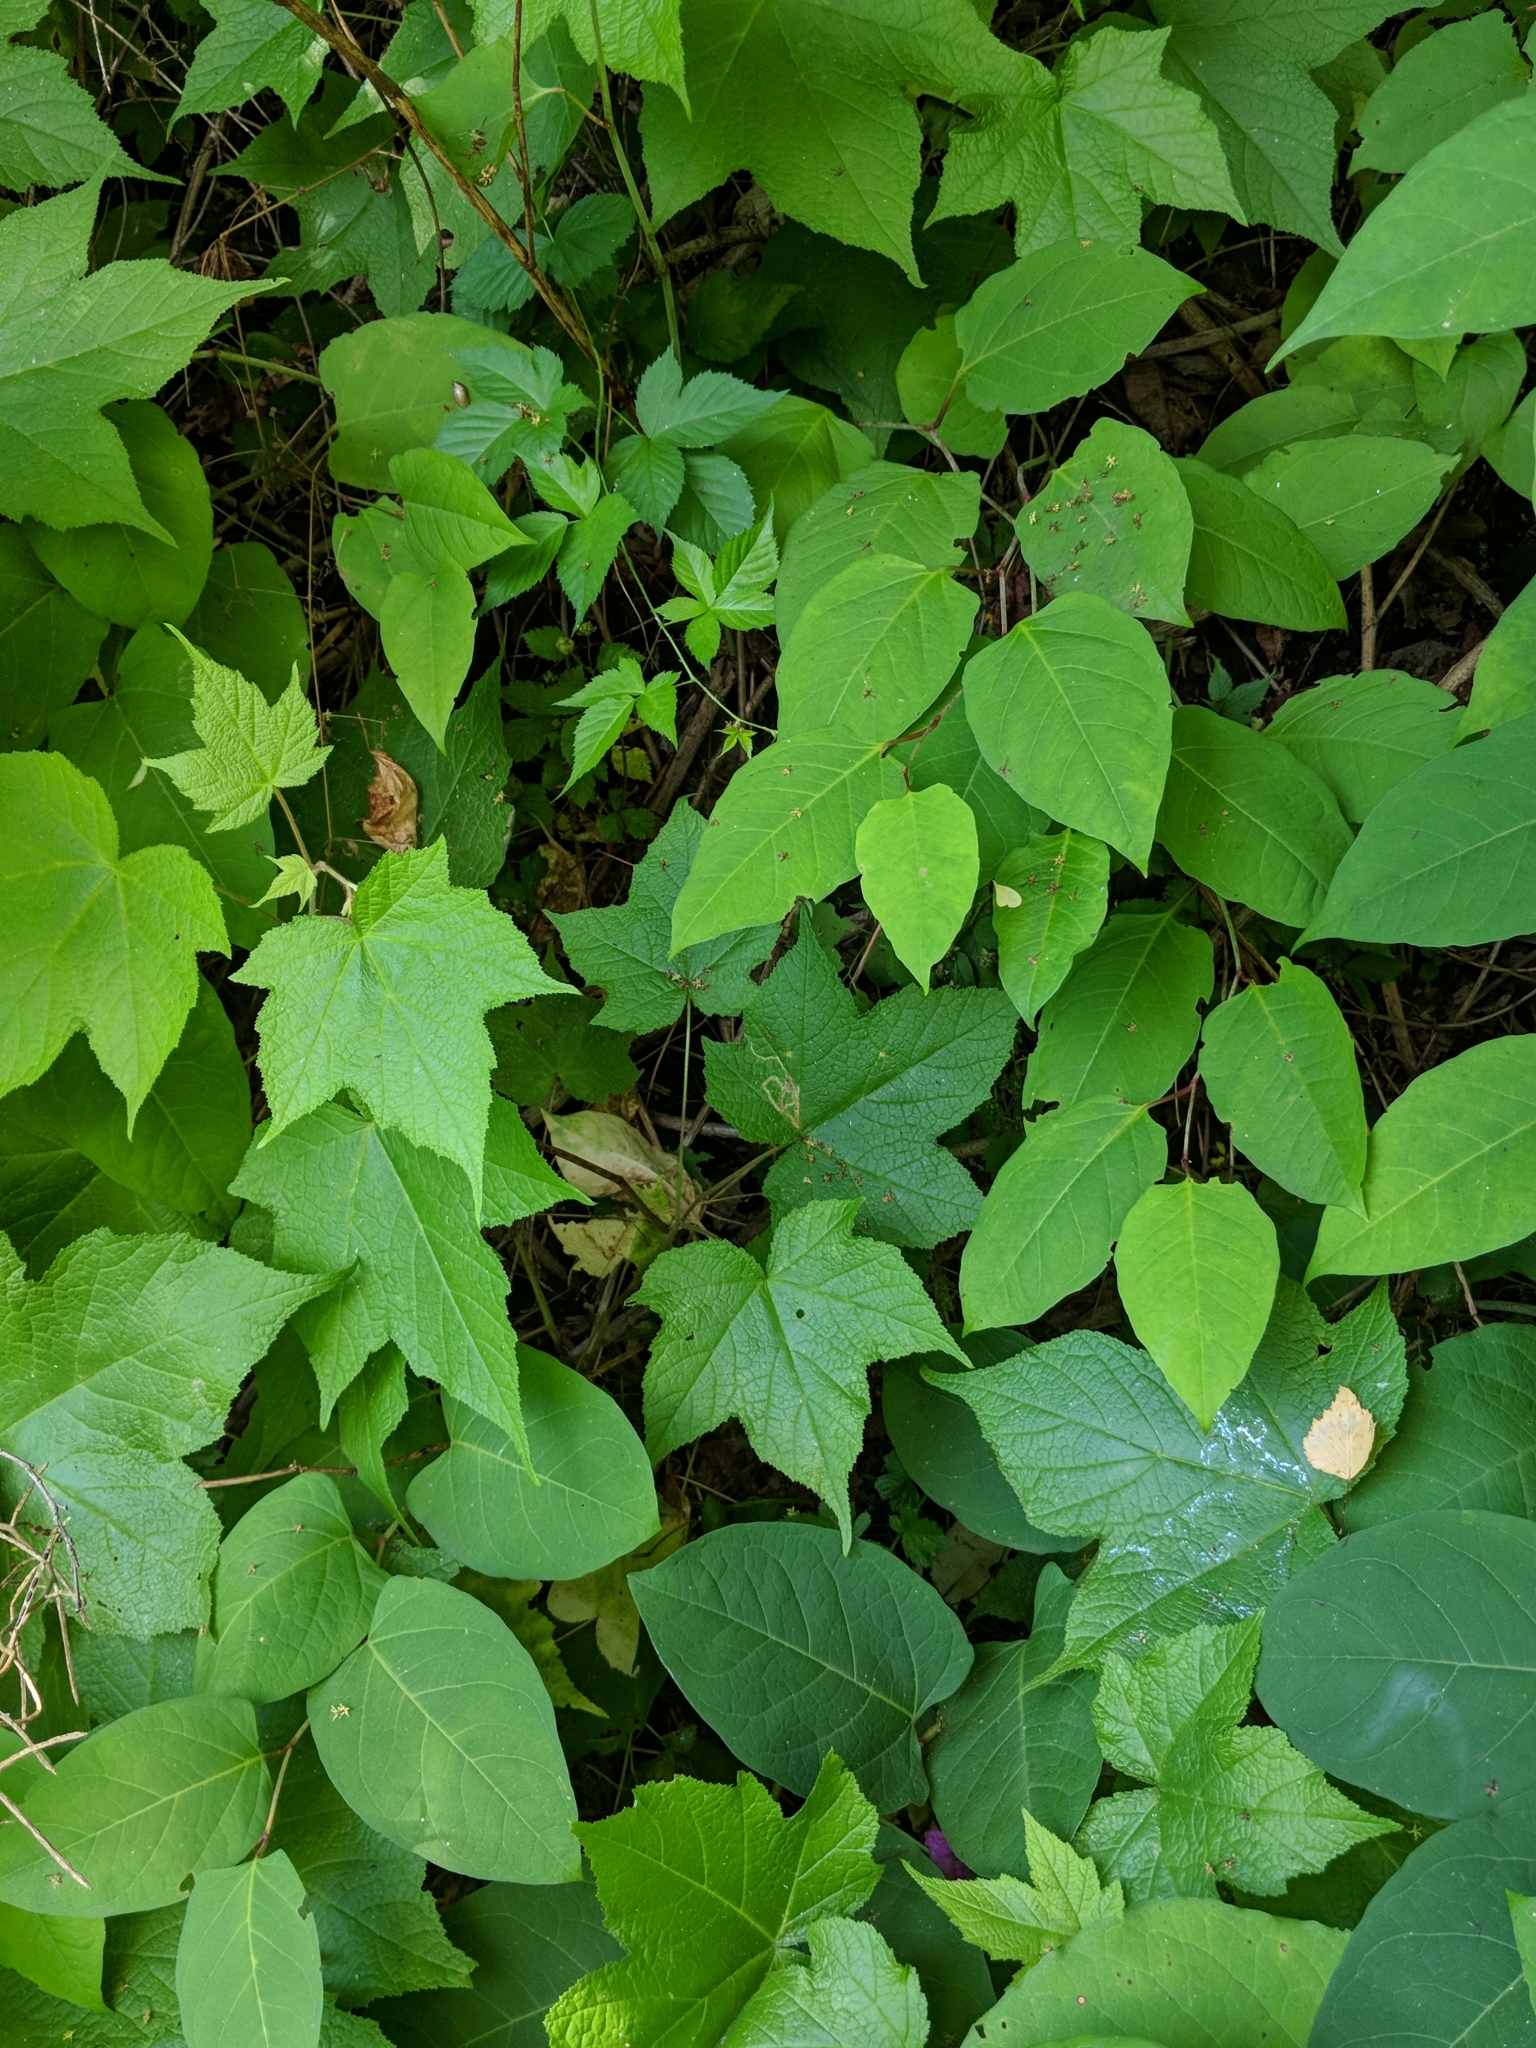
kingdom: Plantae
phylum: Tracheophyta
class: Magnoliopsida
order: Rosales
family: Rosaceae
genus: Rubus
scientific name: Rubus odoratus
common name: Purple-flowered raspberry
